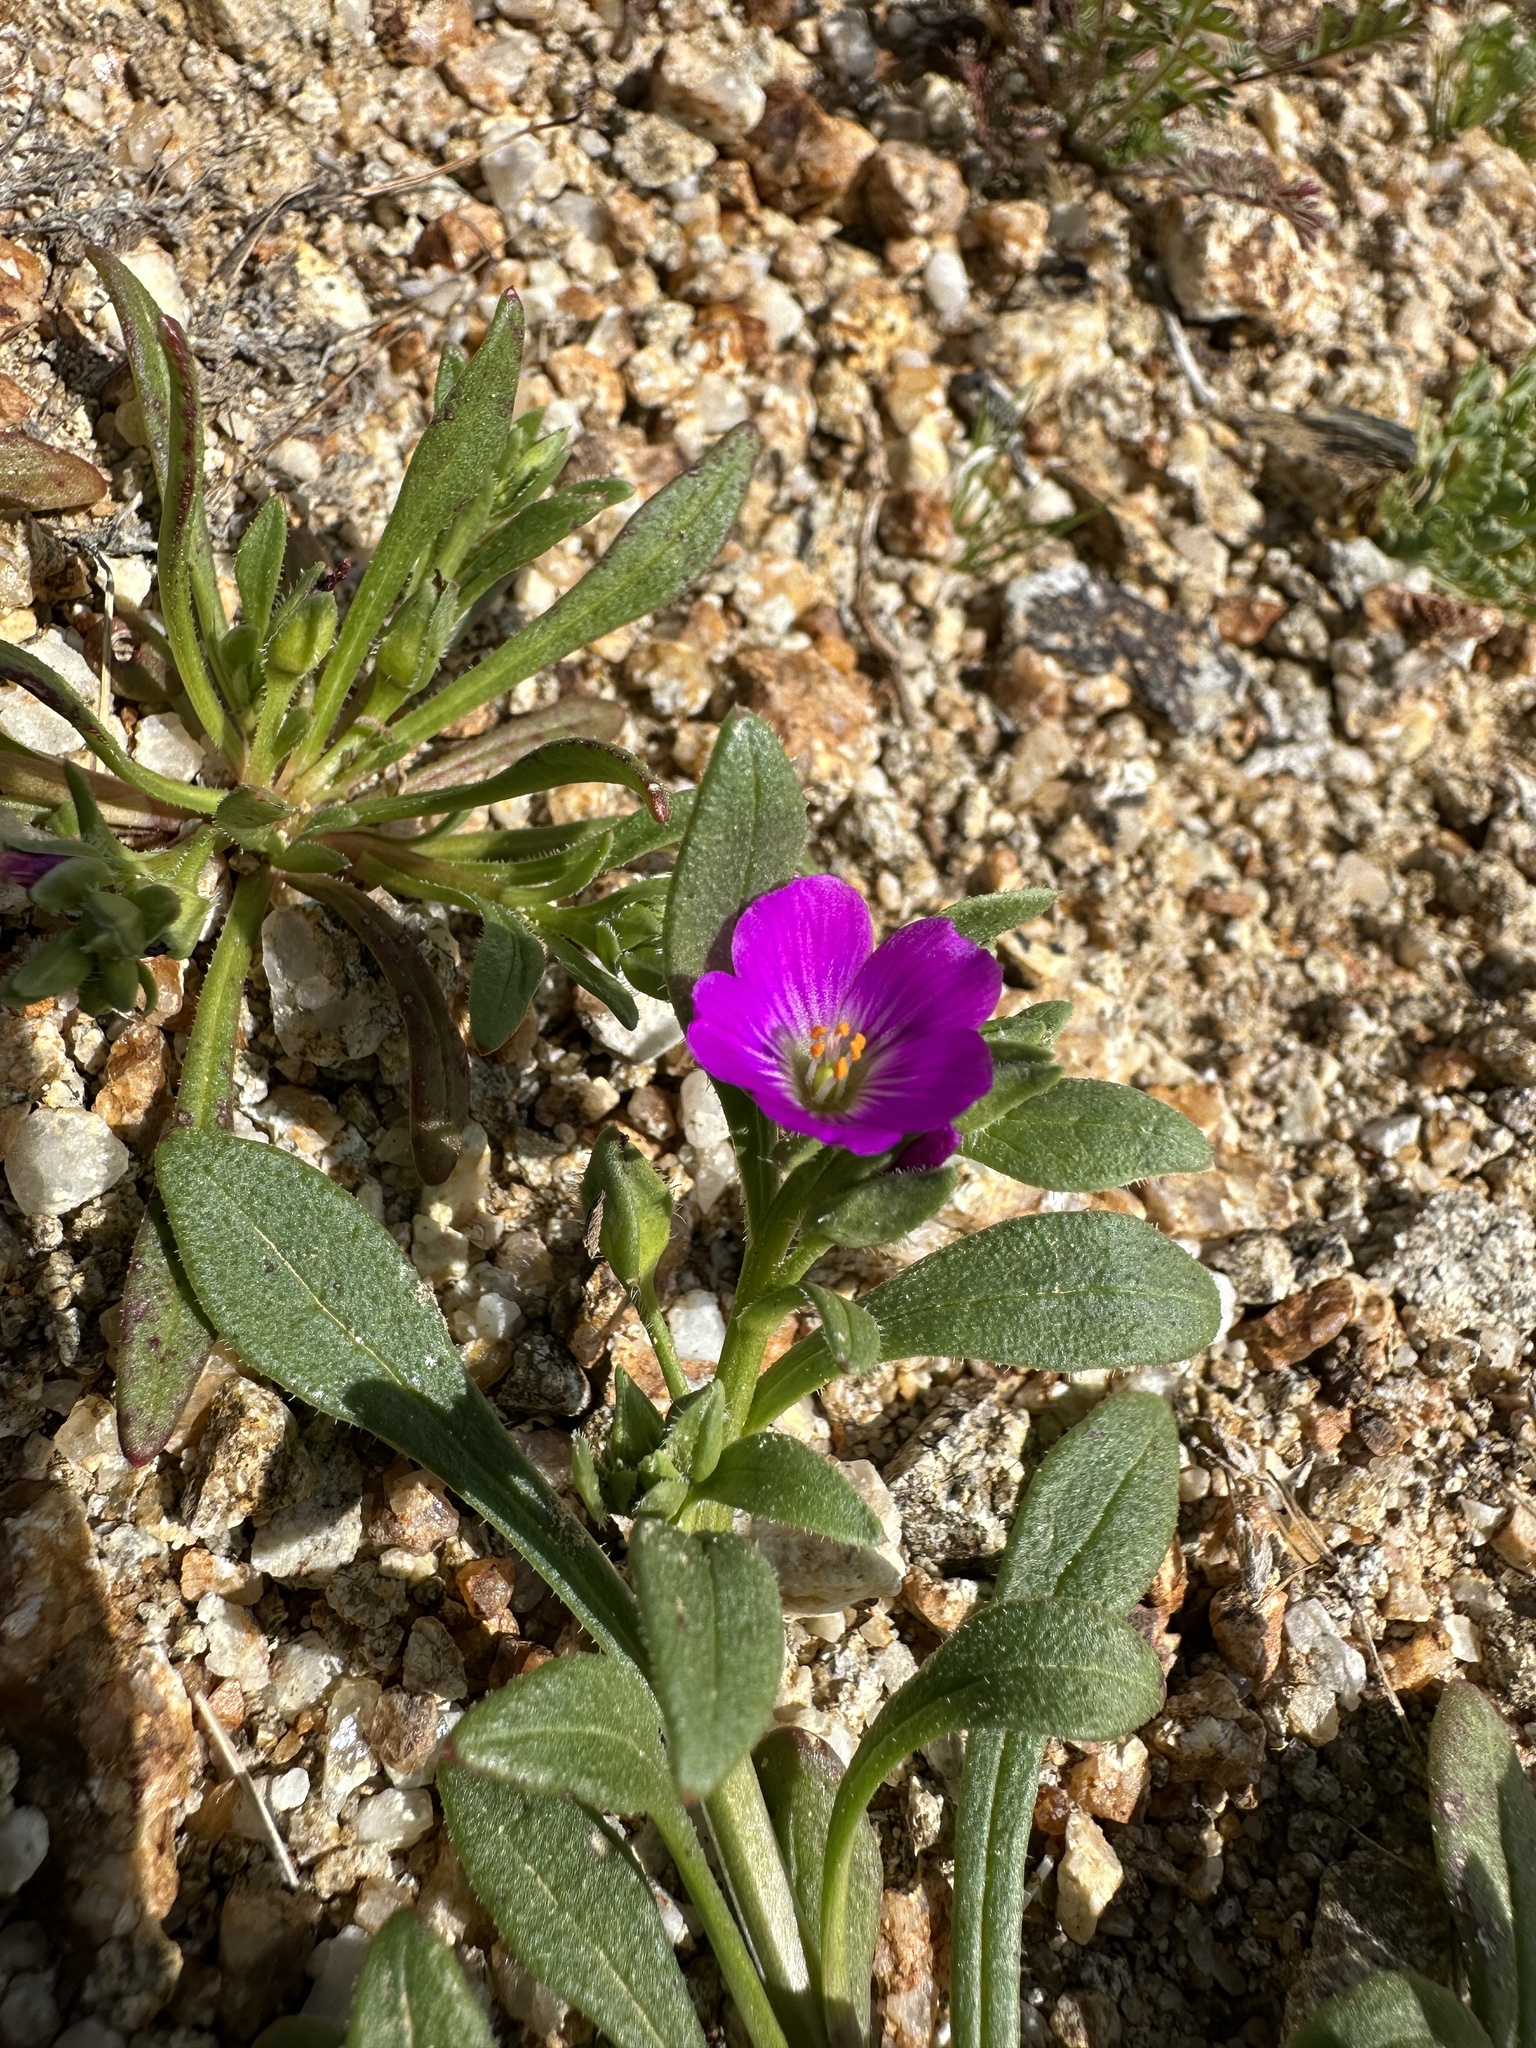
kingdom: Plantae
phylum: Tracheophyta
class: Magnoliopsida
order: Caryophyllales
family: Montiaceae
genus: Calandrinia
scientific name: Calandrinia menziesii
